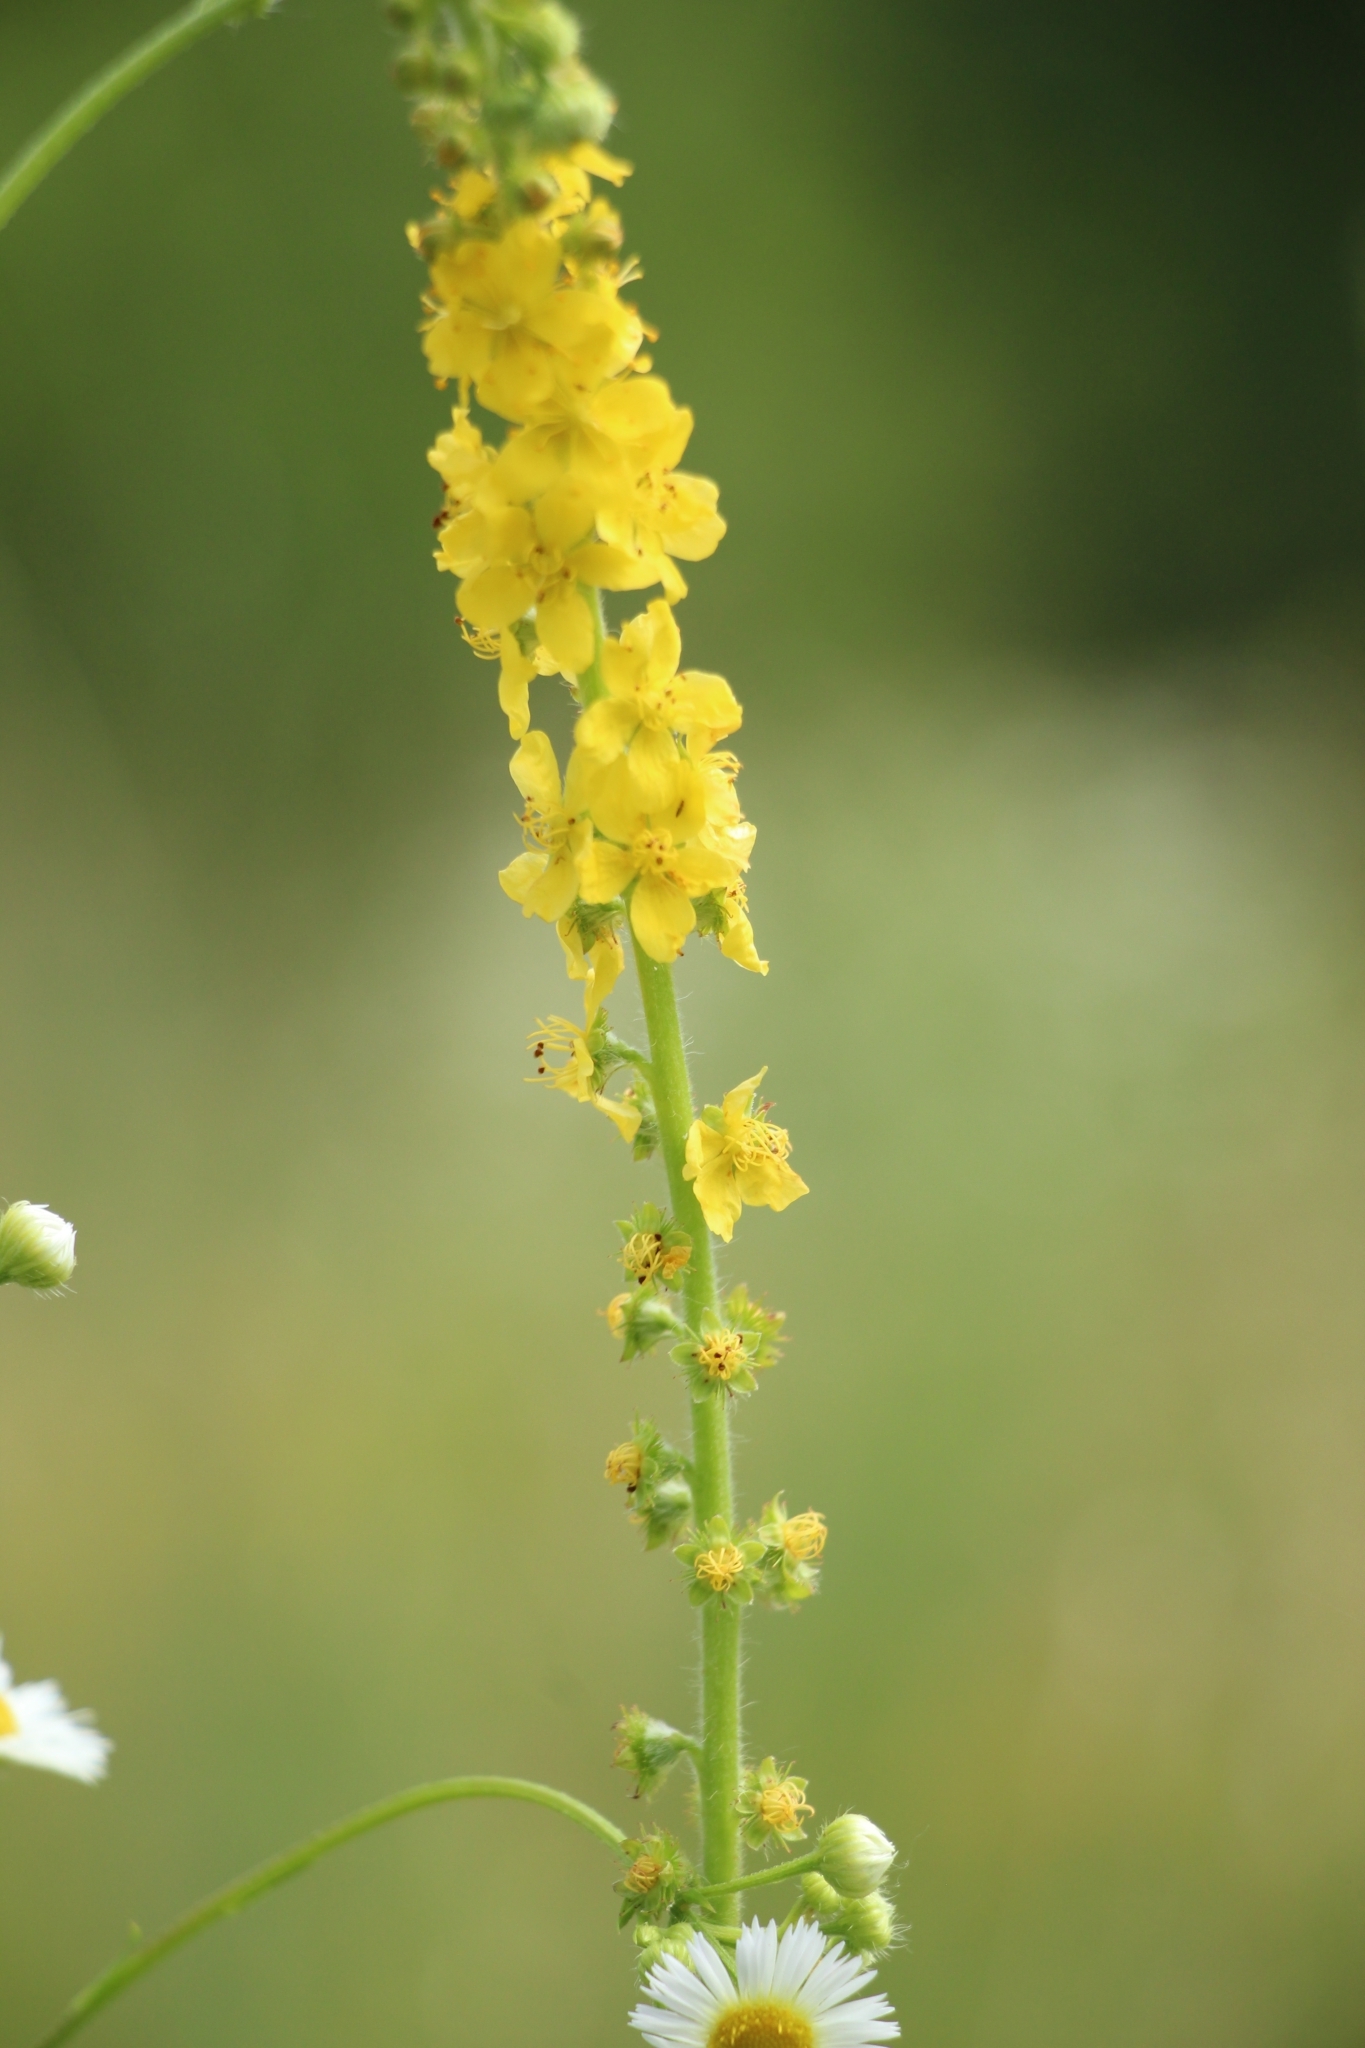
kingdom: Plantae
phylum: Tracheophyta
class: Magnoliopsida
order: Rosales
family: Rosaceae
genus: Agrimonia
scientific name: Agrimonia eupatoria
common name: Agrimony
